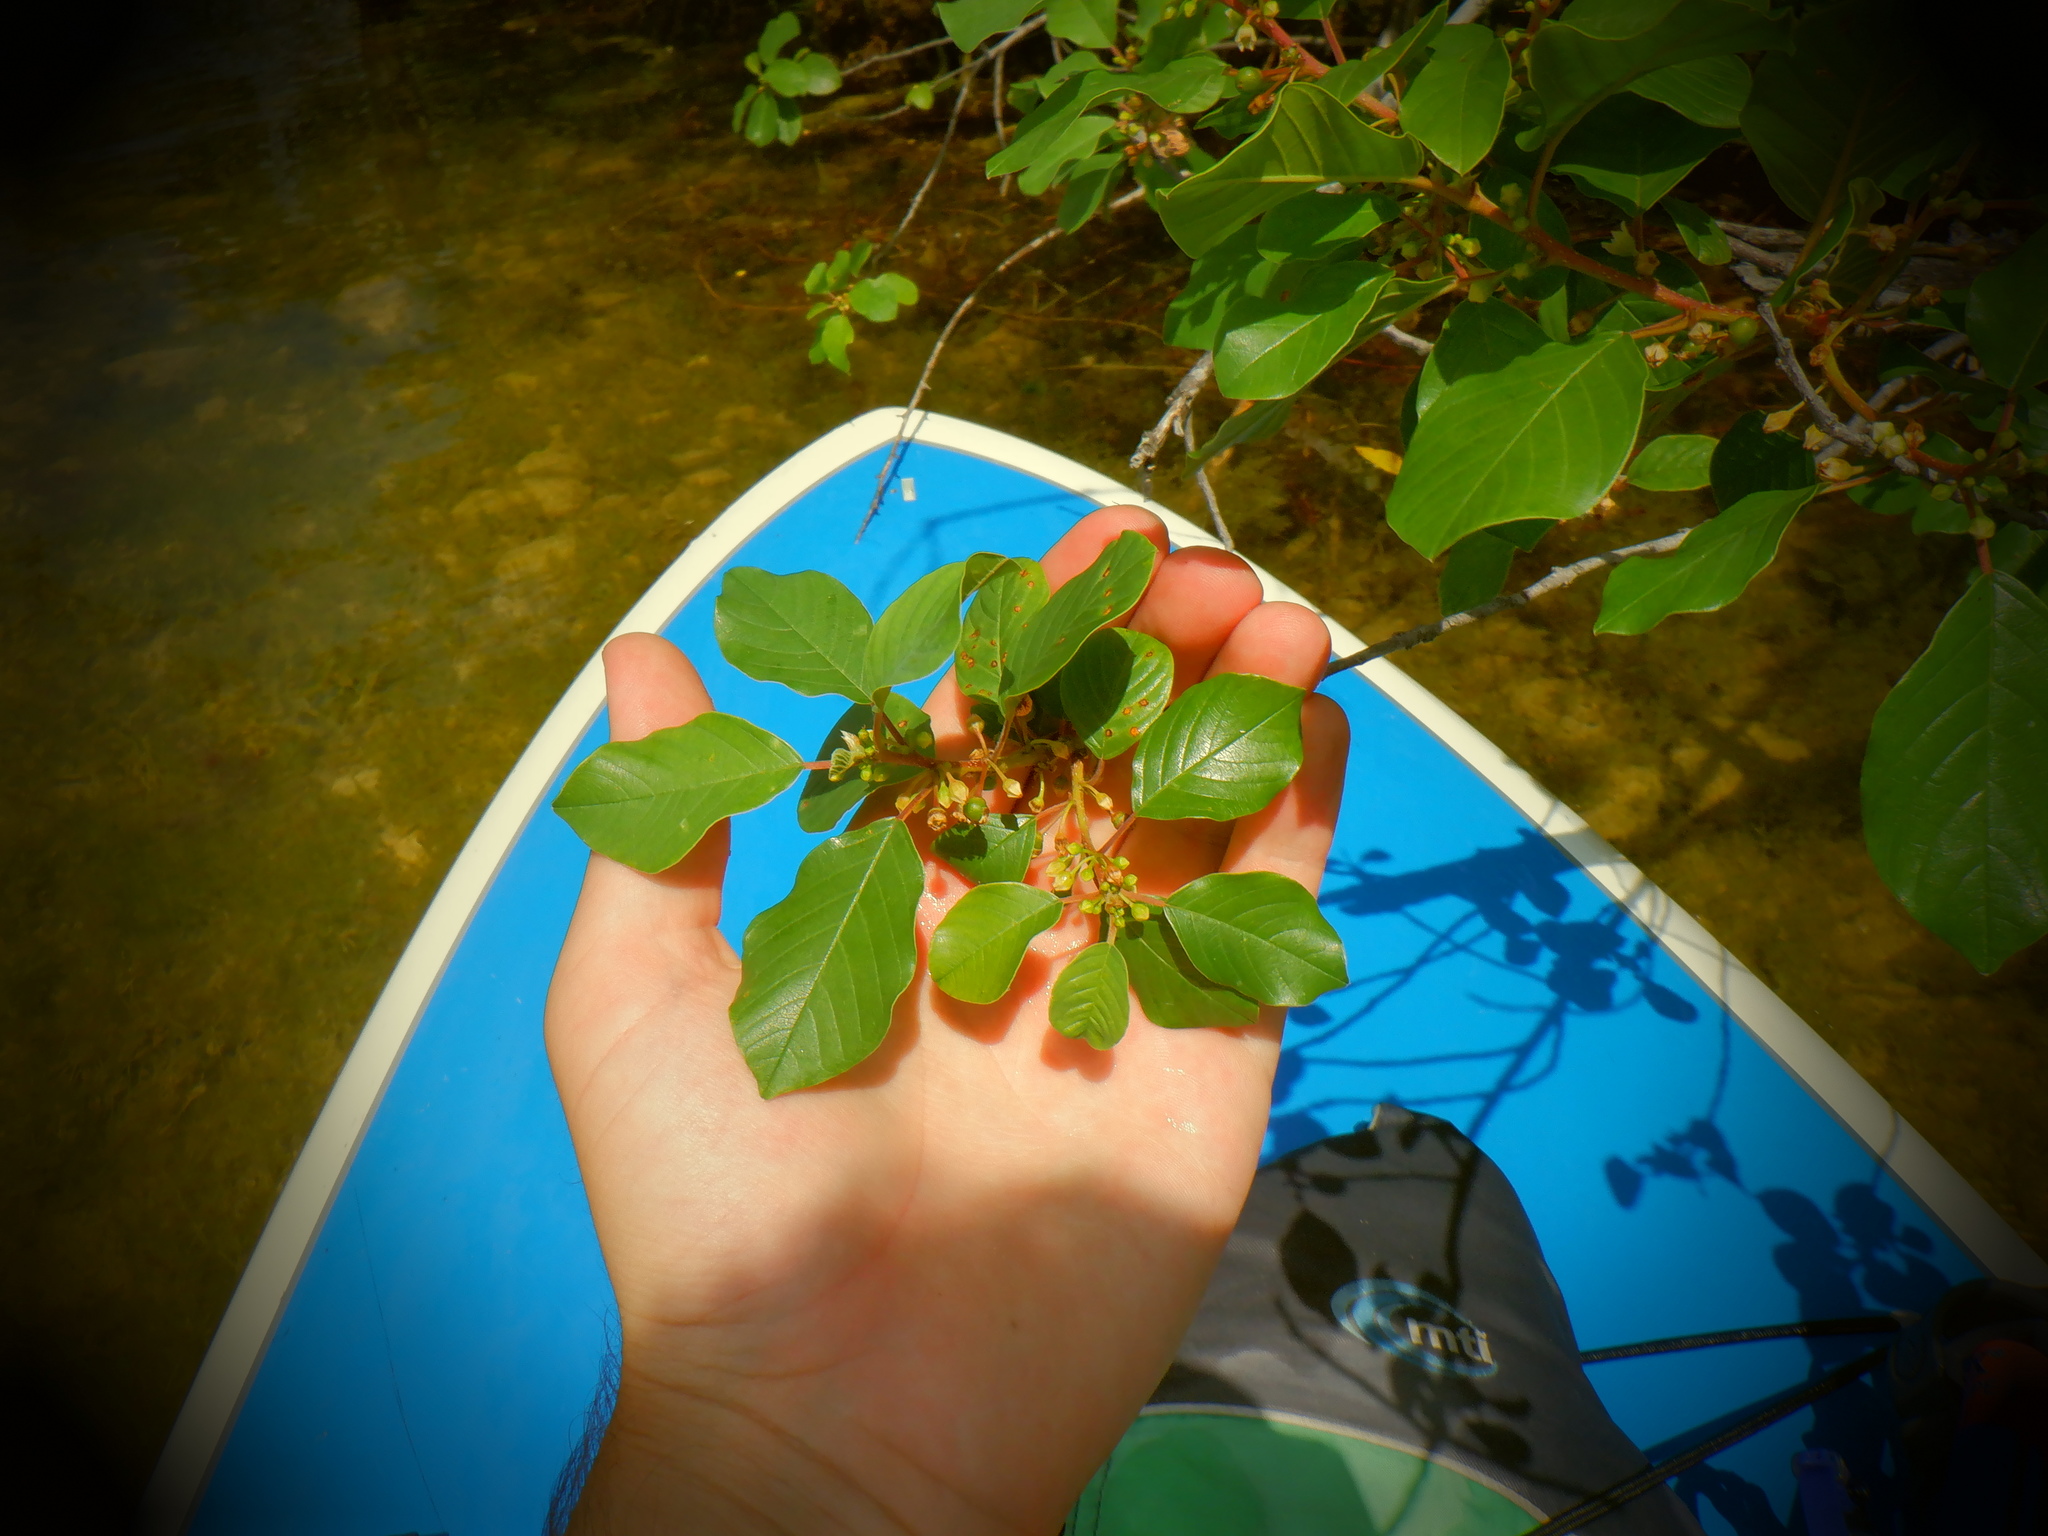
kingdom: Plantae
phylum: Tracheophyta
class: Magnoliopsida
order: Rosales
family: Rhamnaceae
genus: Frangula
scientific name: Frangula alnus
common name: Alder buckthorn
